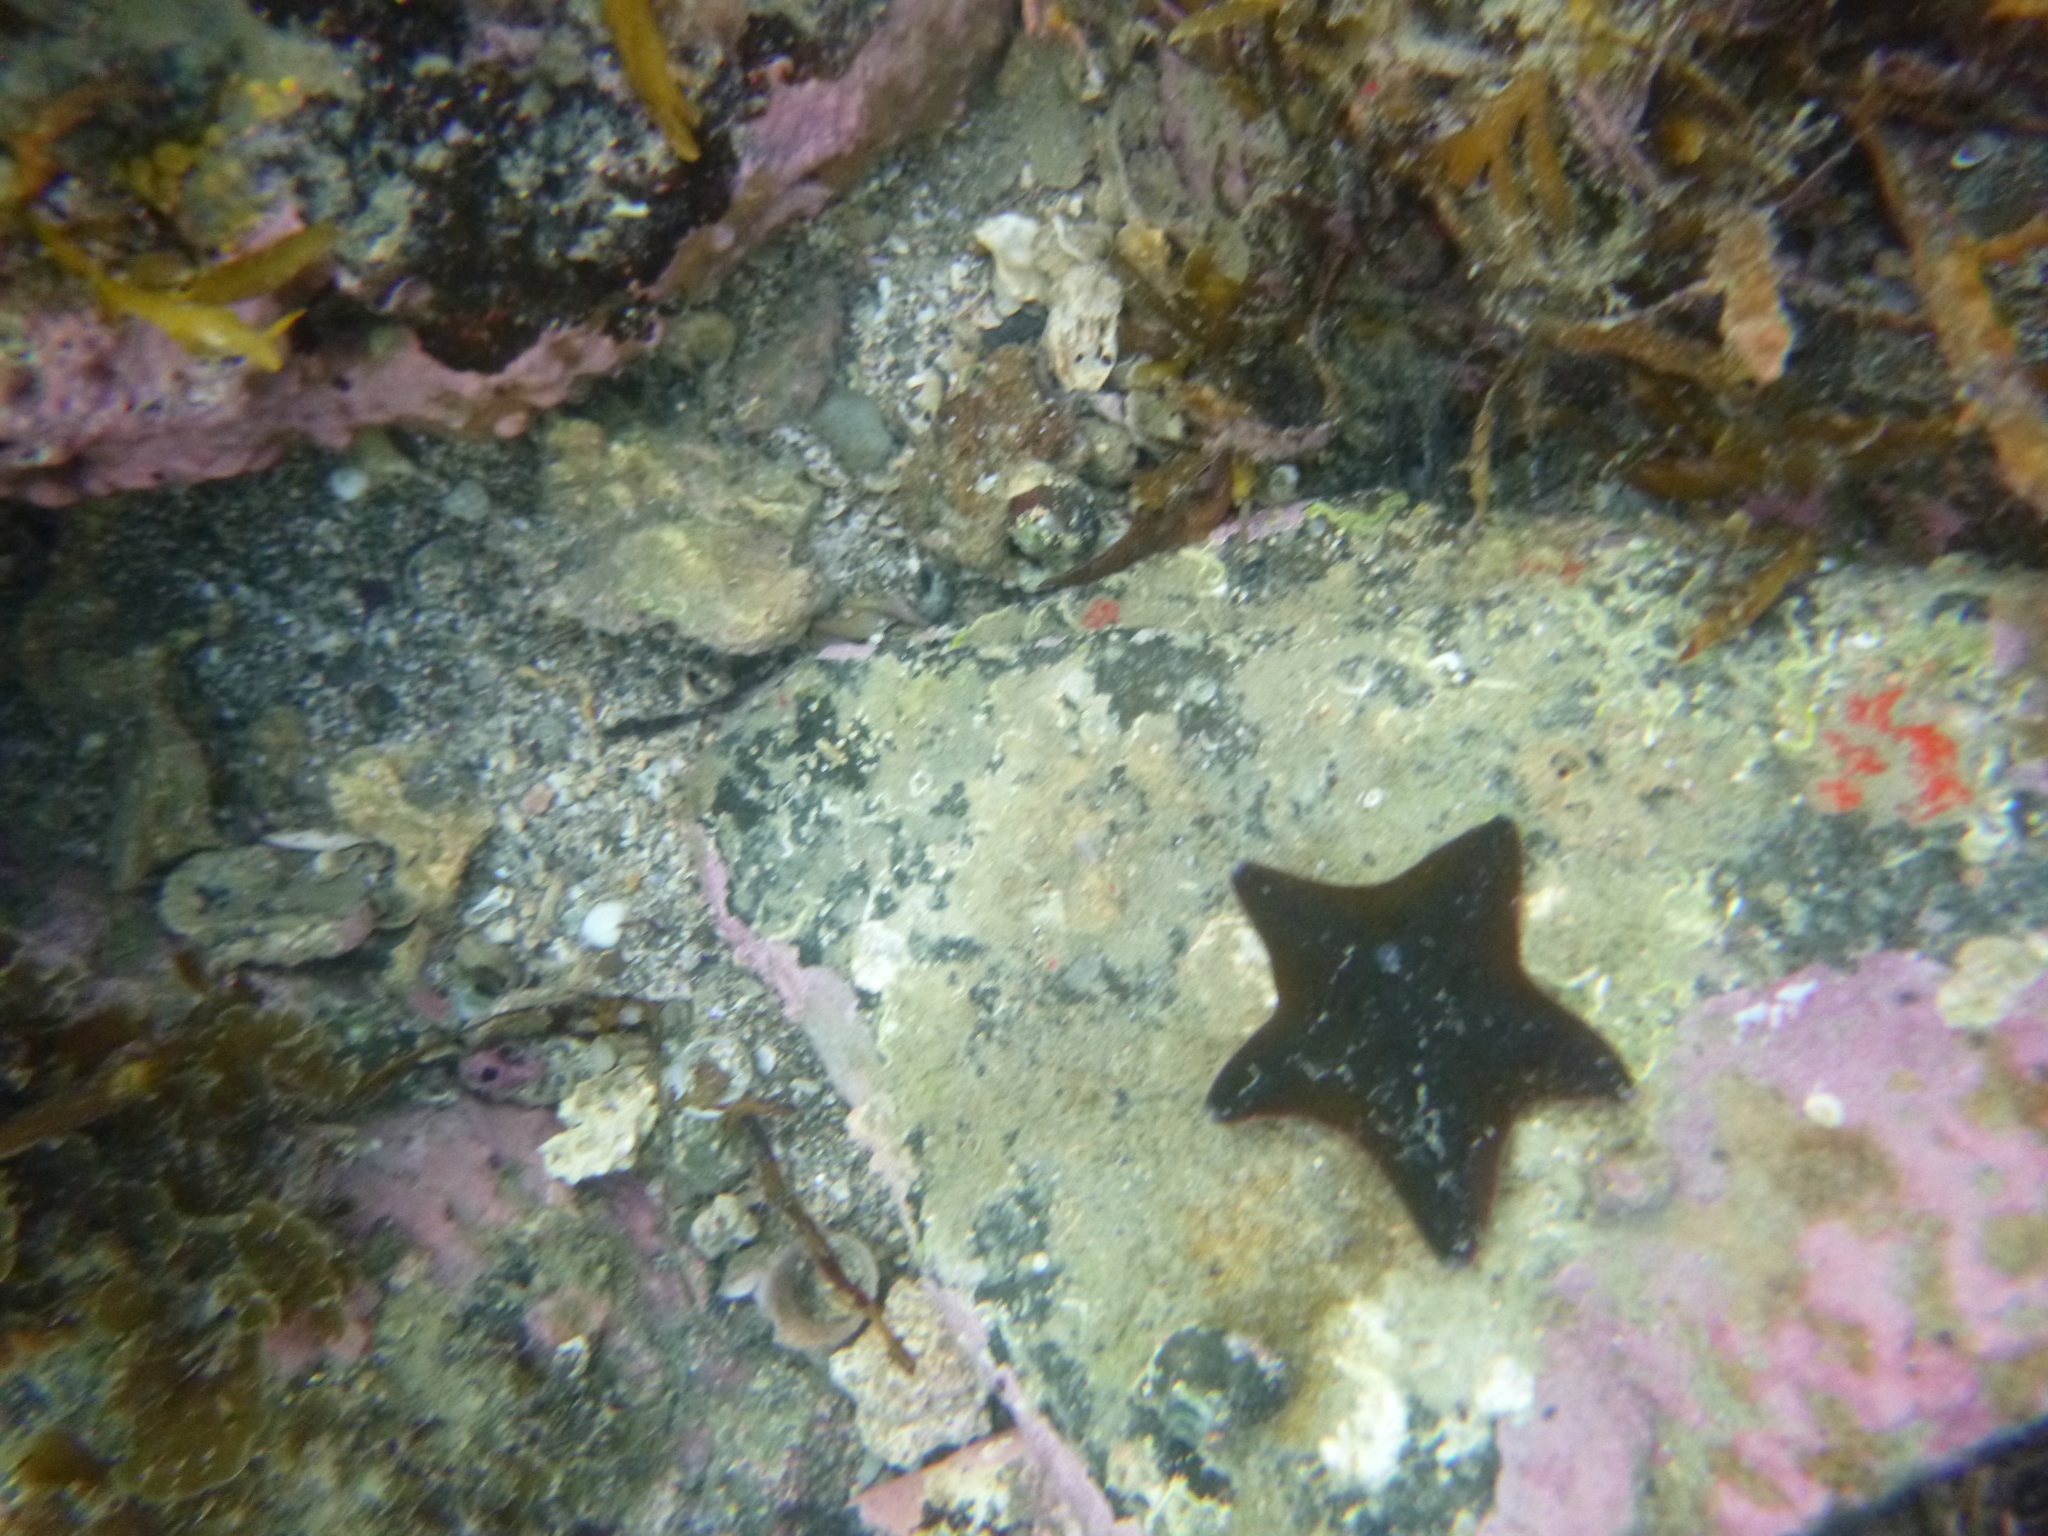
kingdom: Animalia
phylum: Echinodermata
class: Asteroidea
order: Valvatida
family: Asterinidae
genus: Patiriella
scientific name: Patiriella regularis
